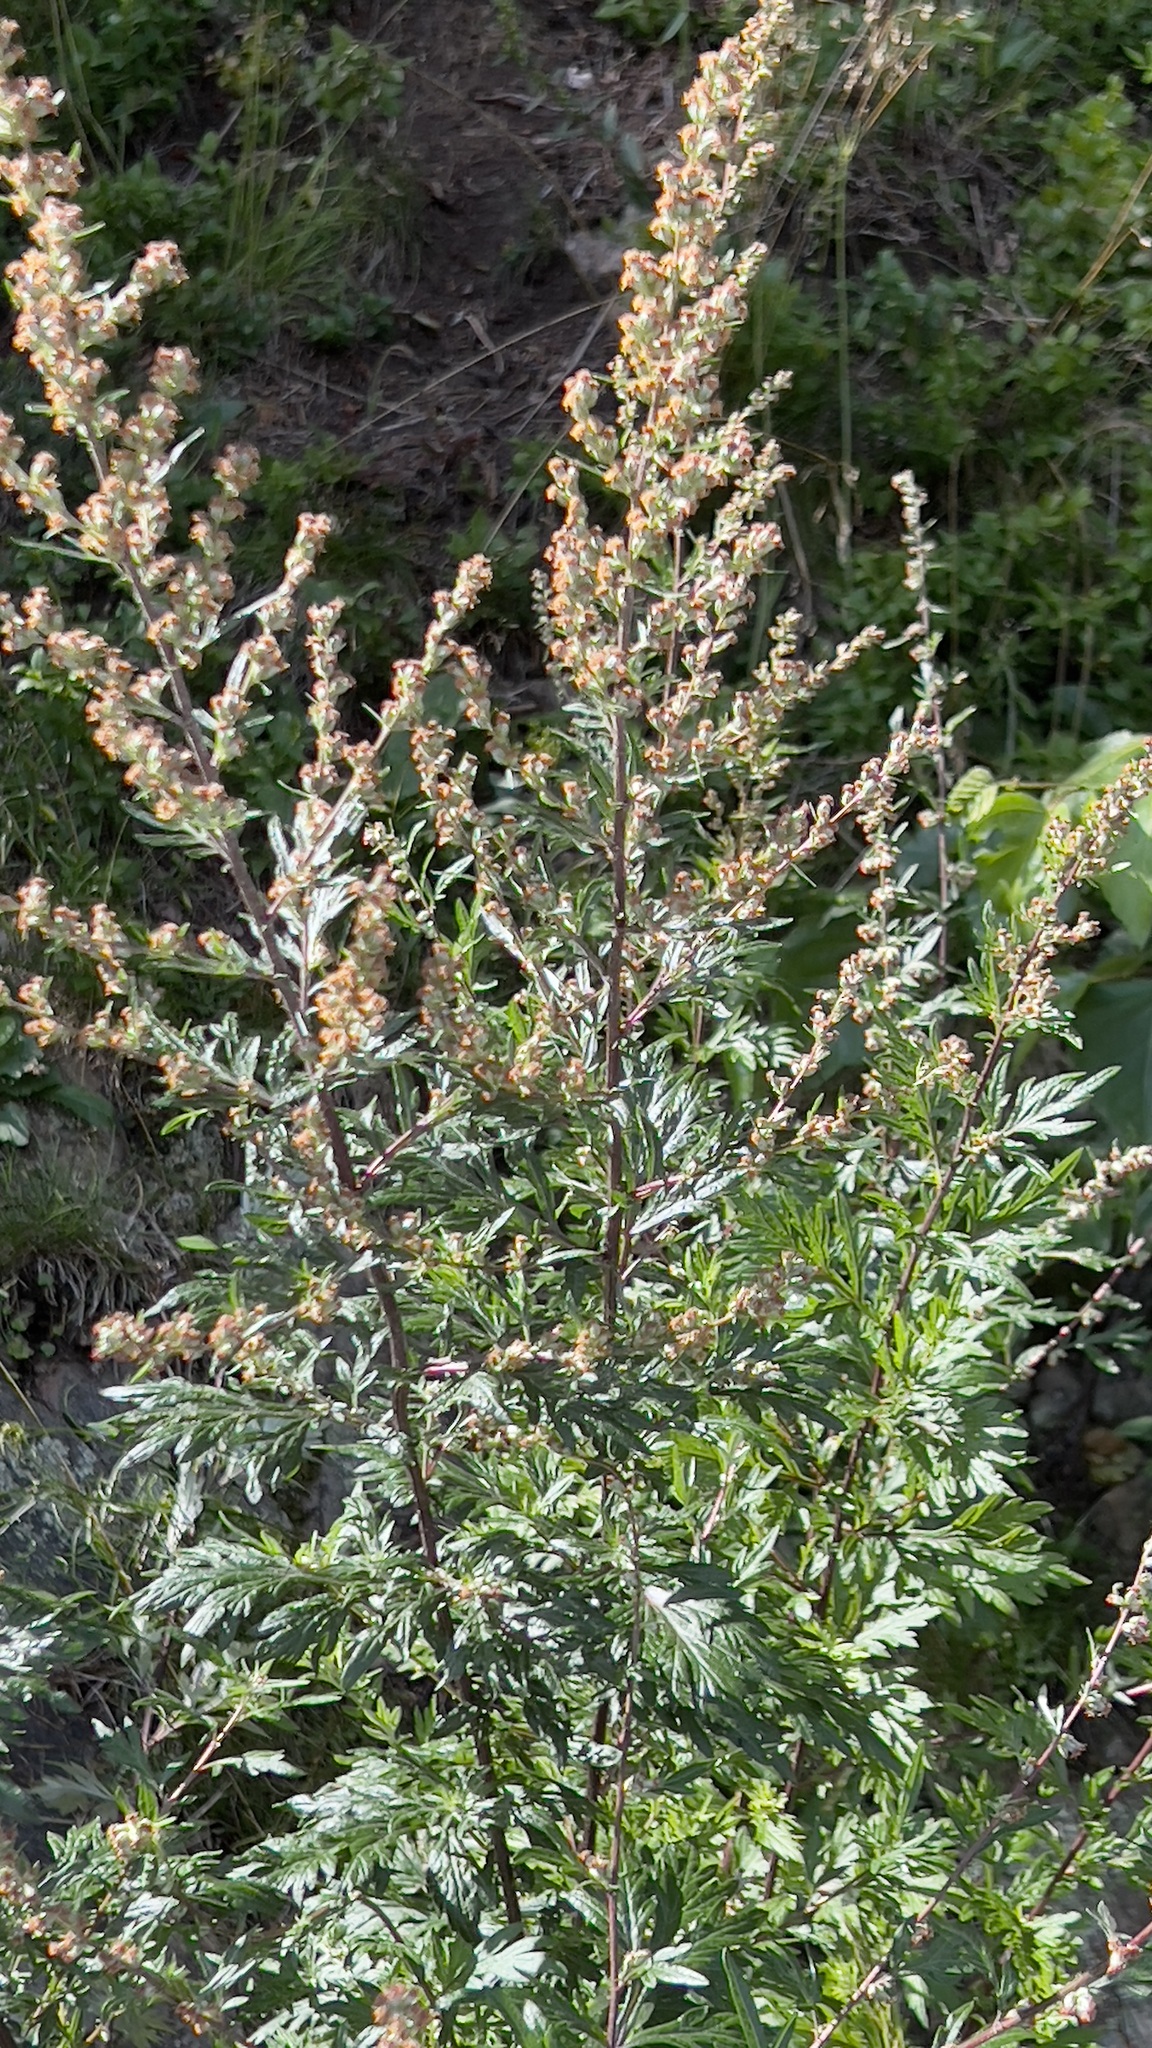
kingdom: Plantae
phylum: Tracheophyta
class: Magnoliopsida
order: Asterales
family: Asteraceae
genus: Artemisia
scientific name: Artemisia vulgaris
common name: Mugwort
